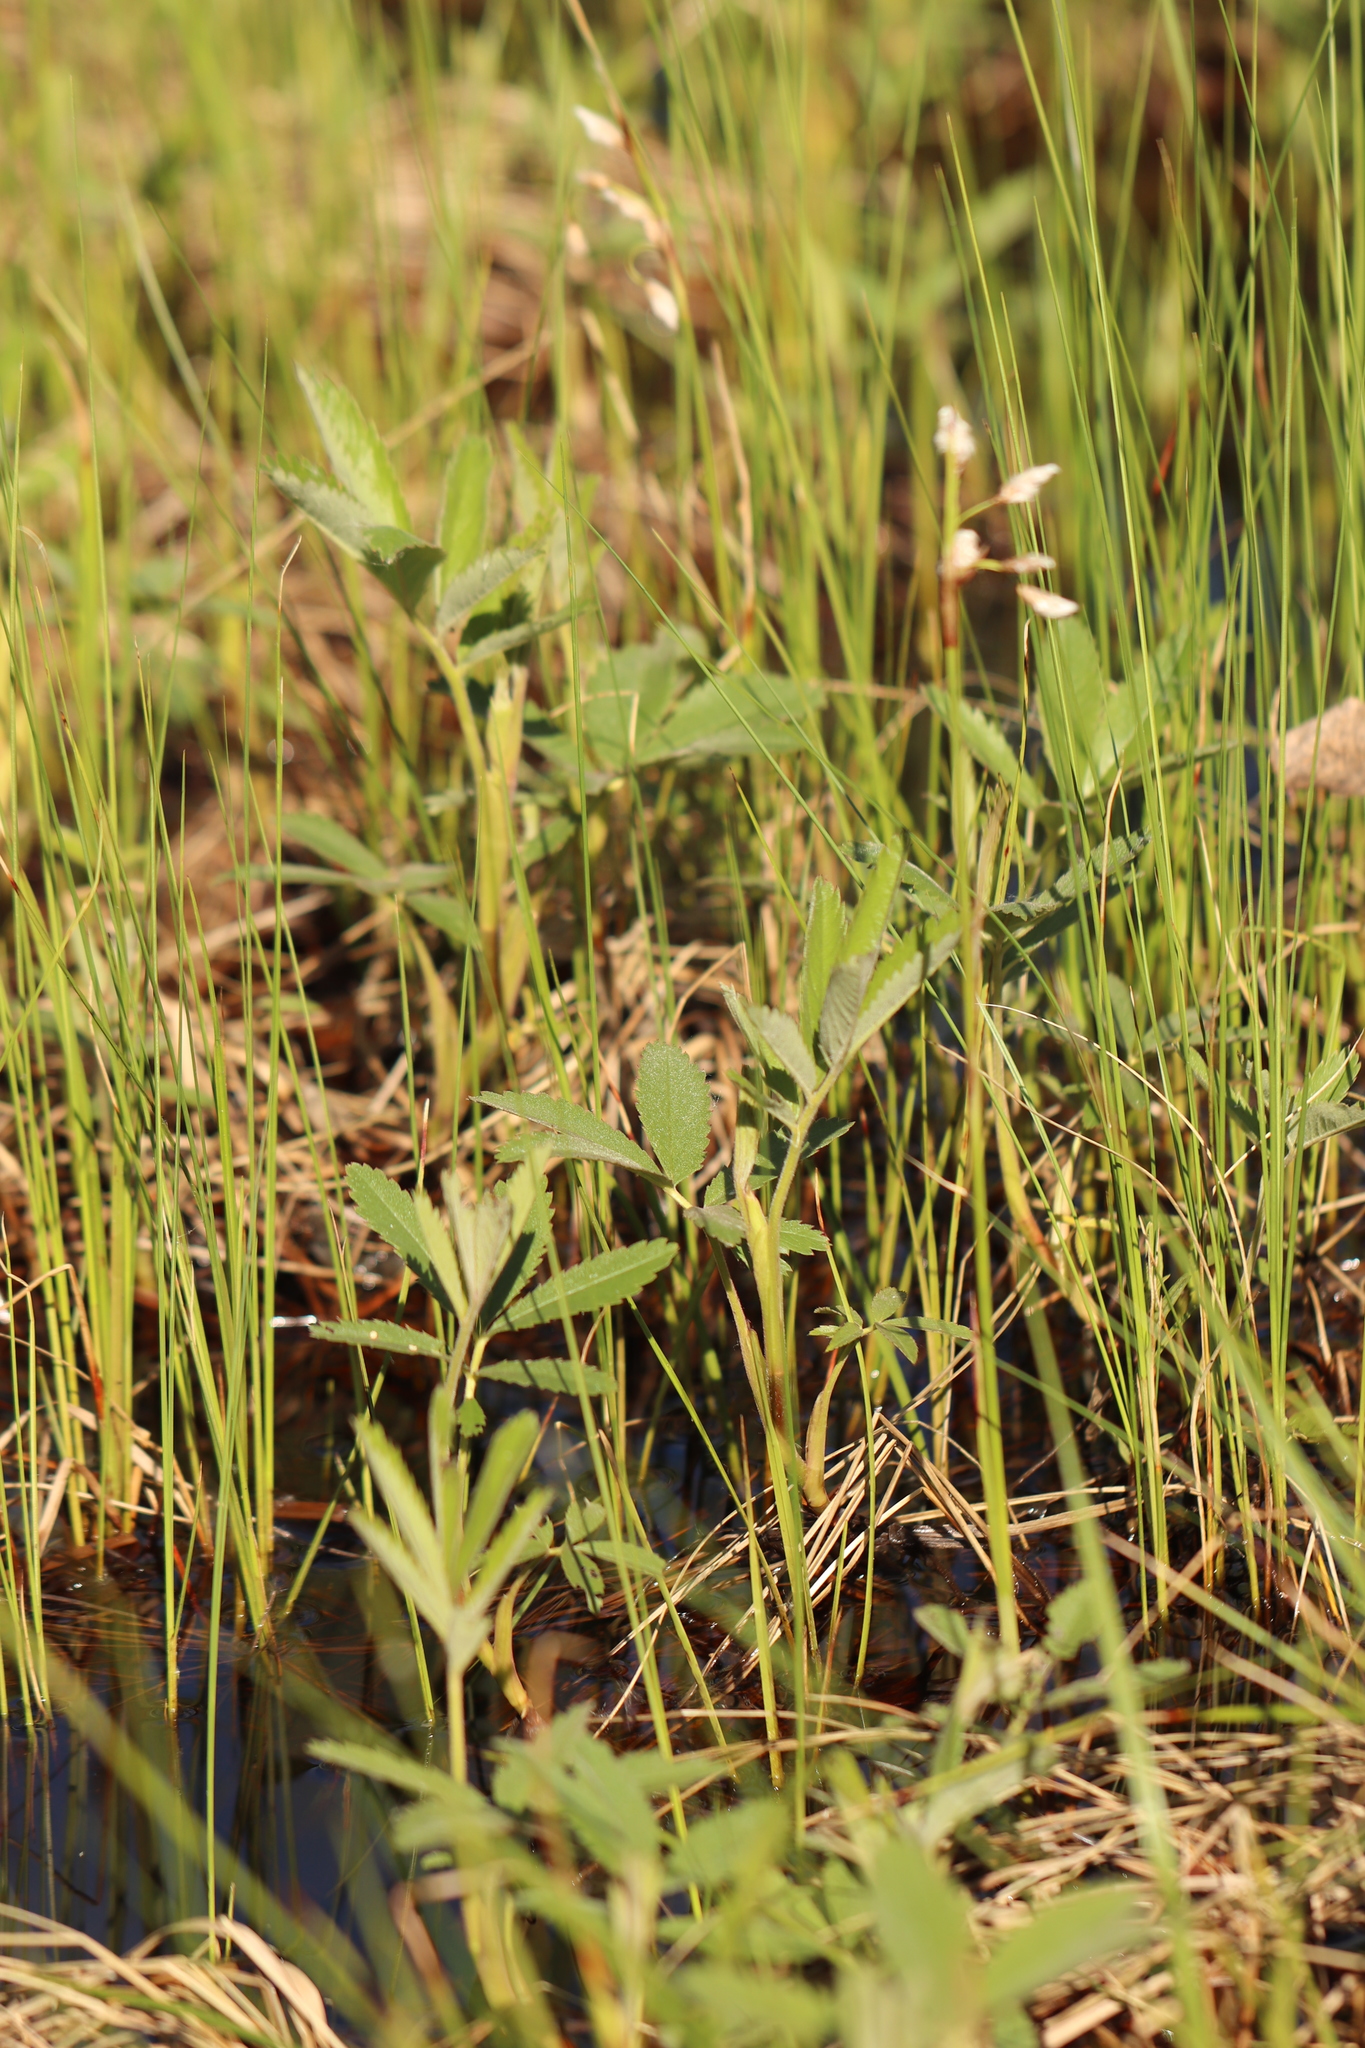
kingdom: Plantae
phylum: Tracheophyta
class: Magnoliopsida
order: Rosales
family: Rosaceae
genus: Comarum
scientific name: Comarum palustre
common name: Marsh cinquefoil
